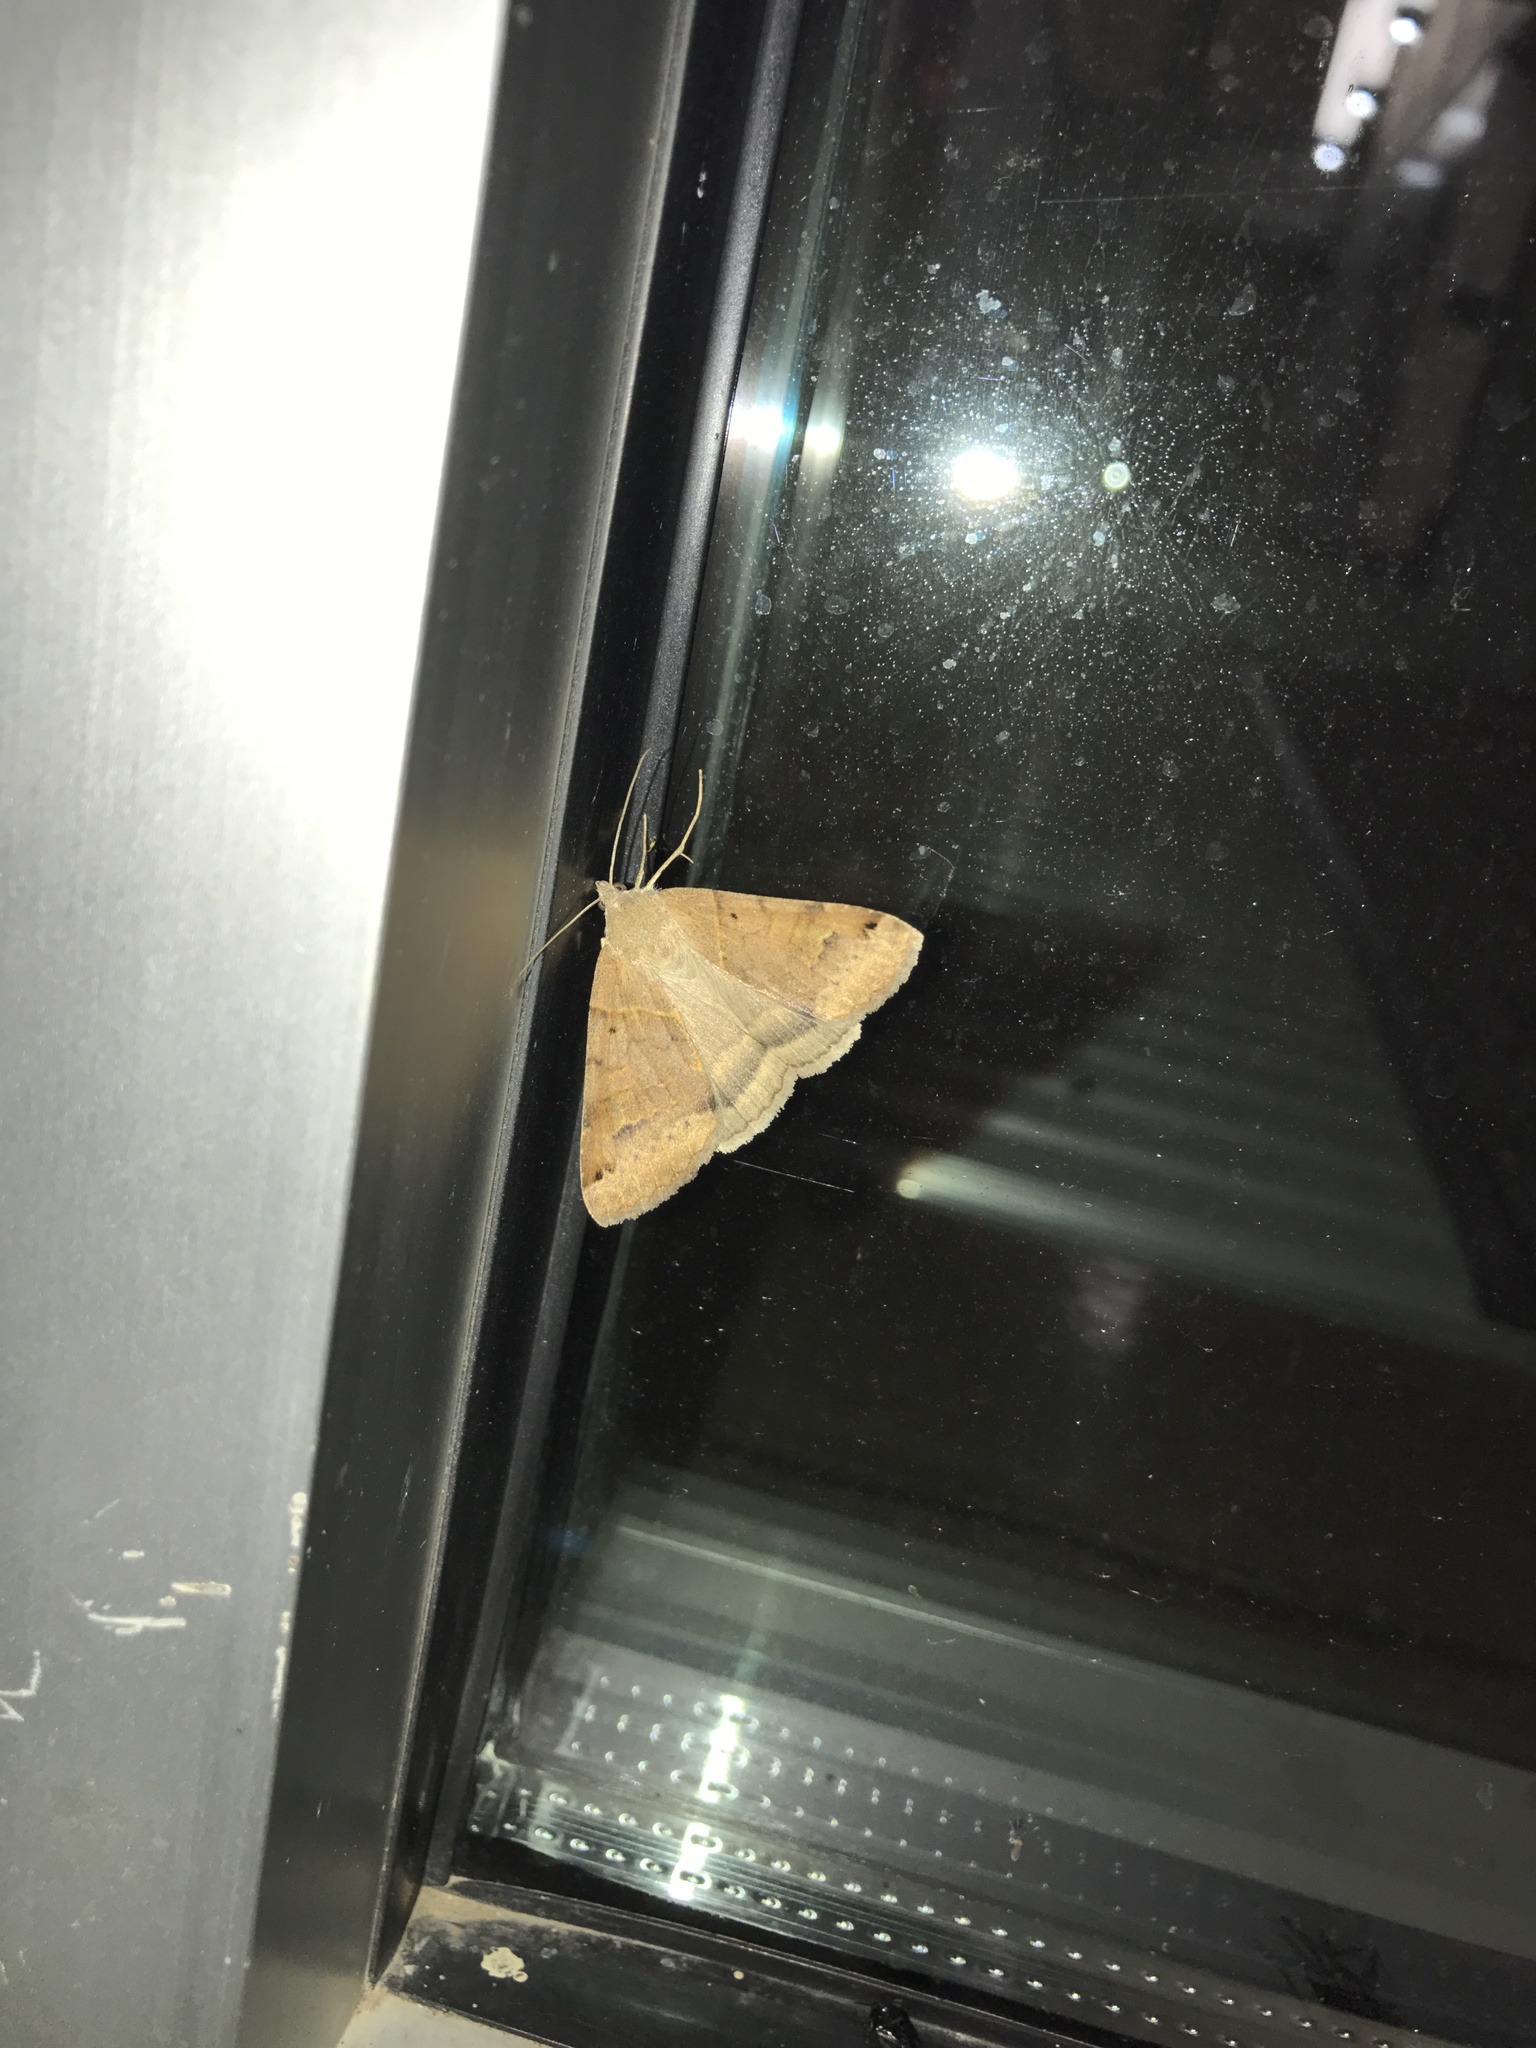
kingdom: Animalia
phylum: Arthropoda
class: Insecta
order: Lepidoptera
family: Erebidae
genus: Caenurgina
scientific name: Caenurgina erechtea
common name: Forage looper moth
